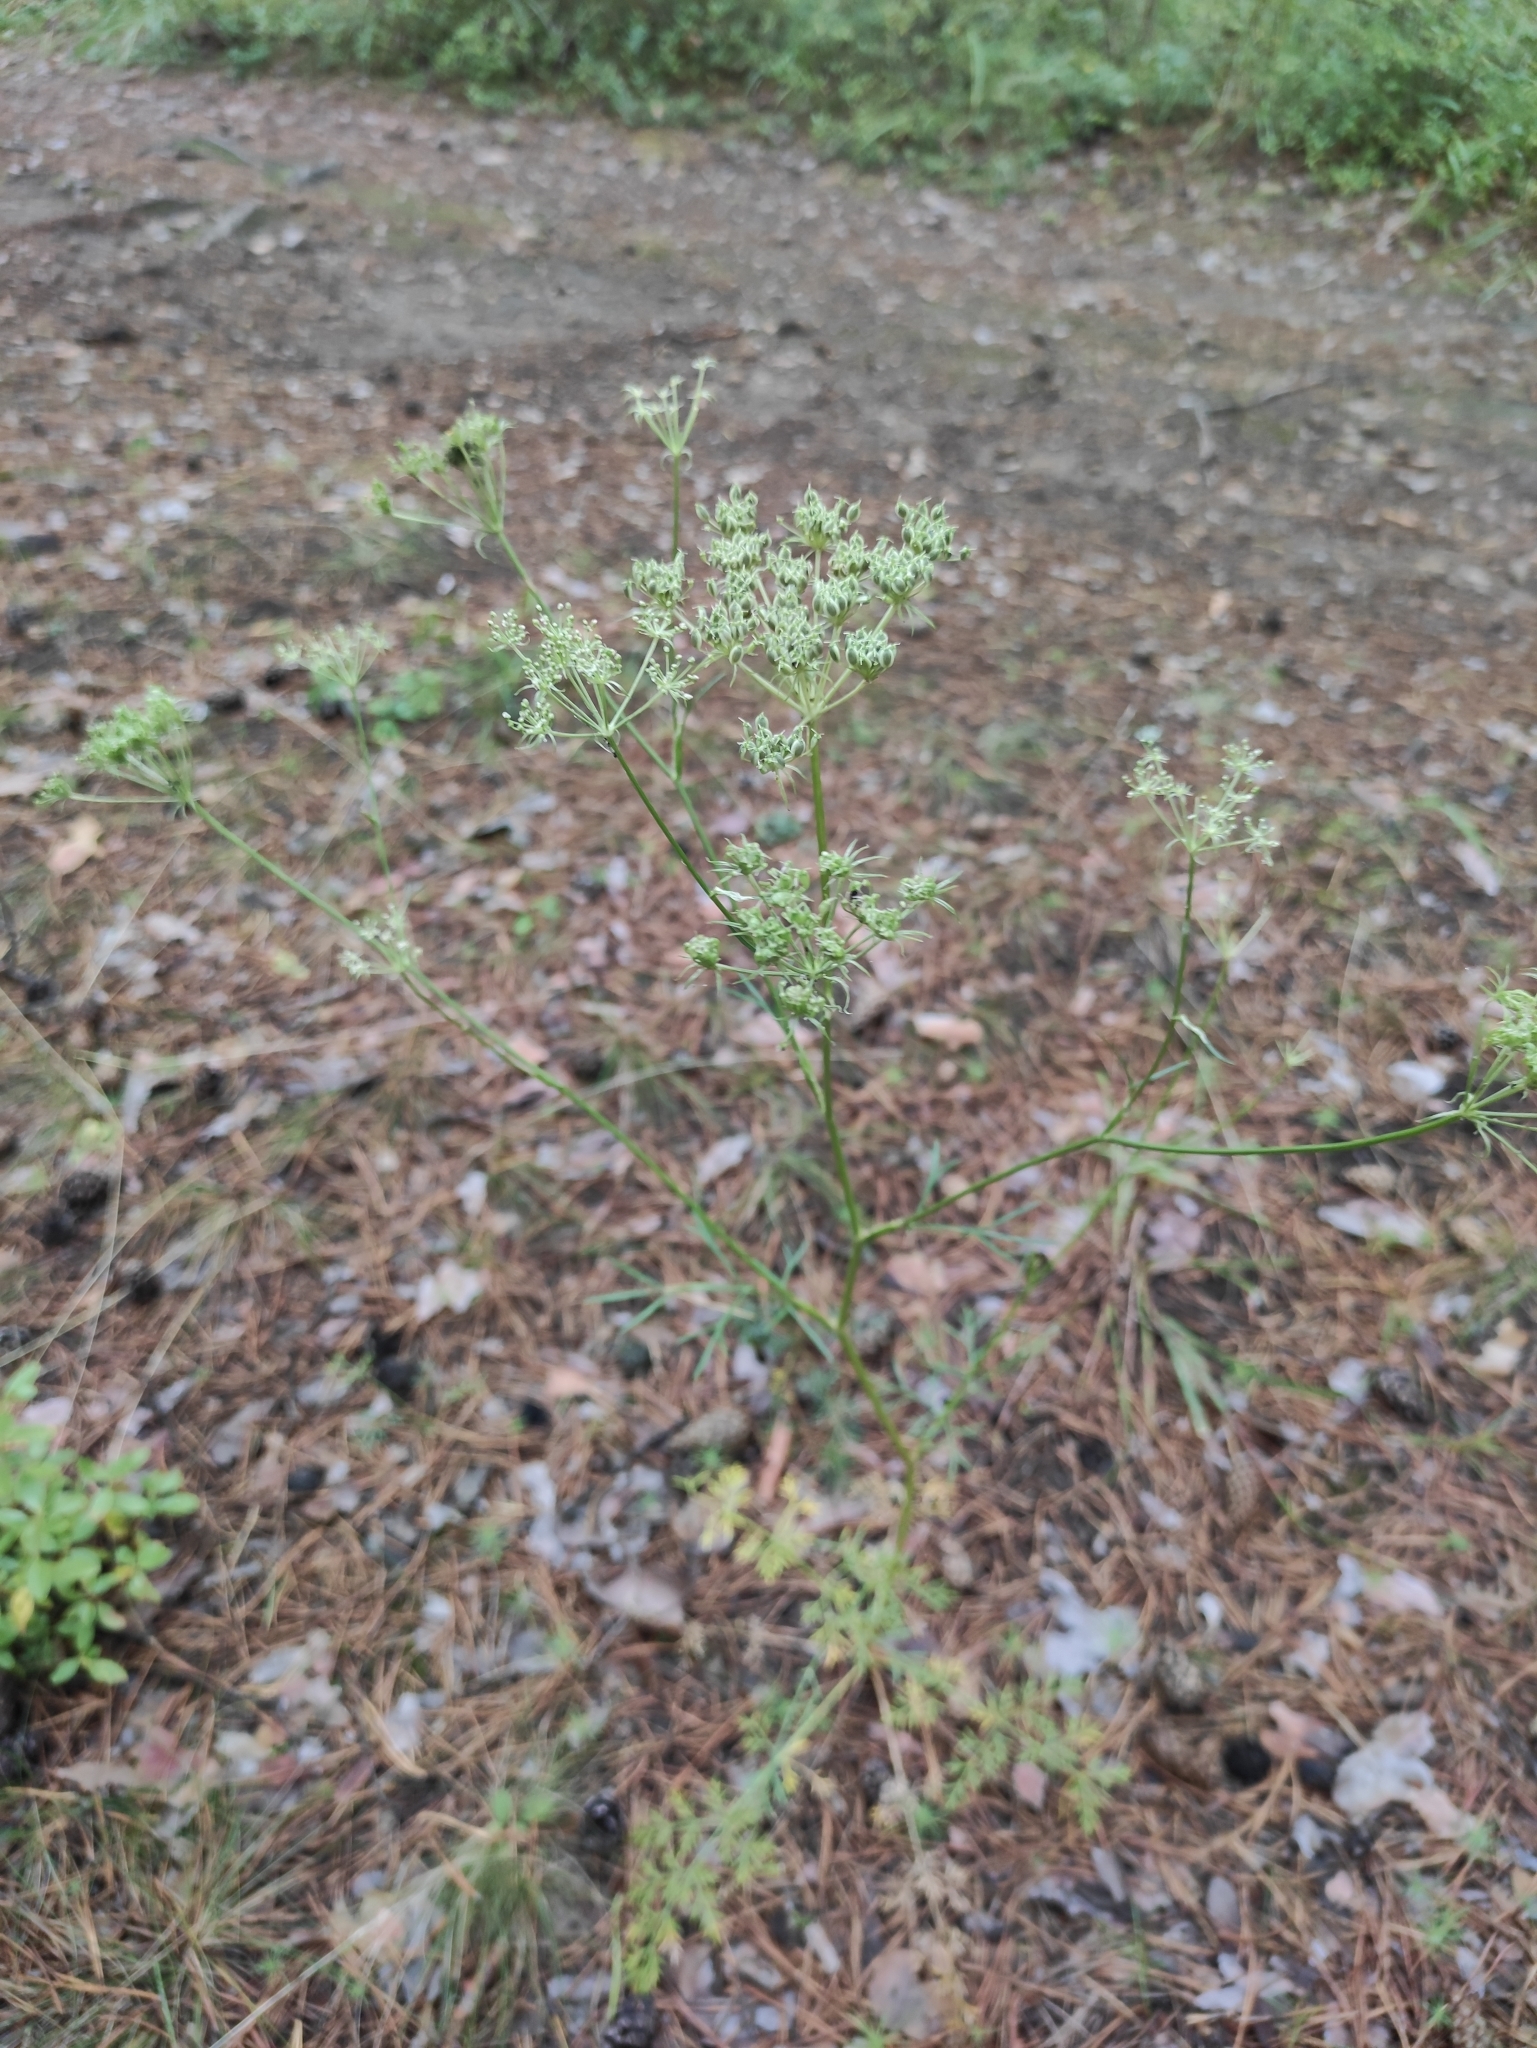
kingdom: Plantae
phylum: Tracheophyta
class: Magnoliopsida
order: Apiales
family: Apiaceae
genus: Kitagawia
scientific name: Kitagawia baicalensis
